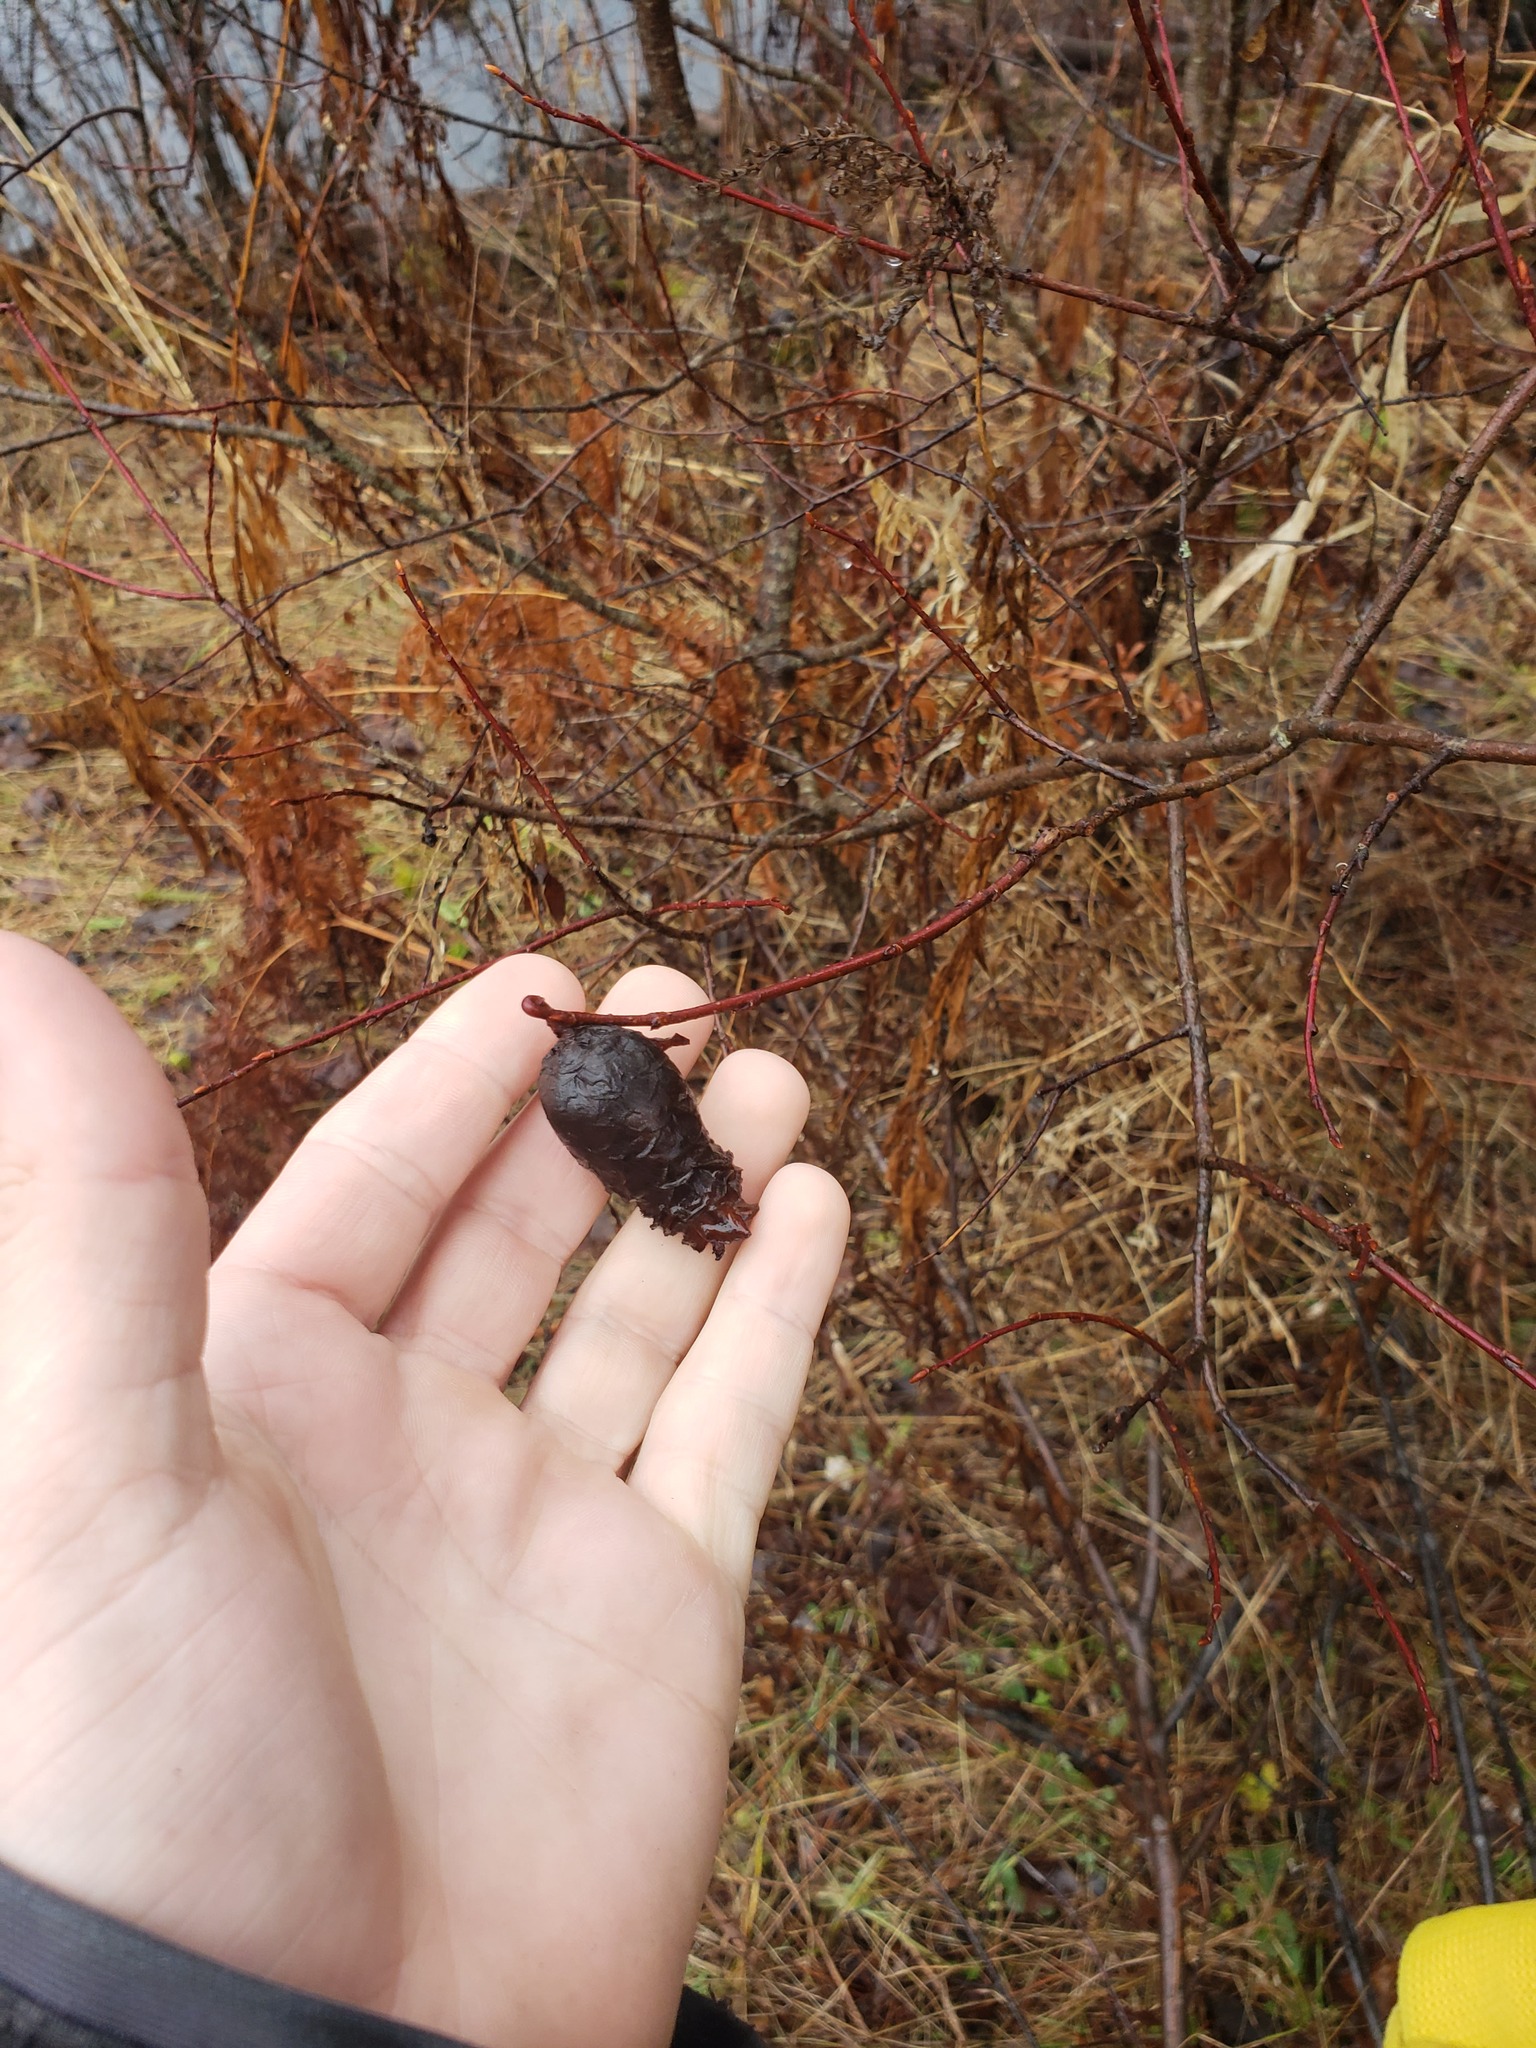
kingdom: Animalia
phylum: Arthropoda
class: Insecta
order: Diptera
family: Cecidomyiidae
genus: Rabdophaga
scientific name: Rabdophaga strobiloides
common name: Willow pinecone gall midge
